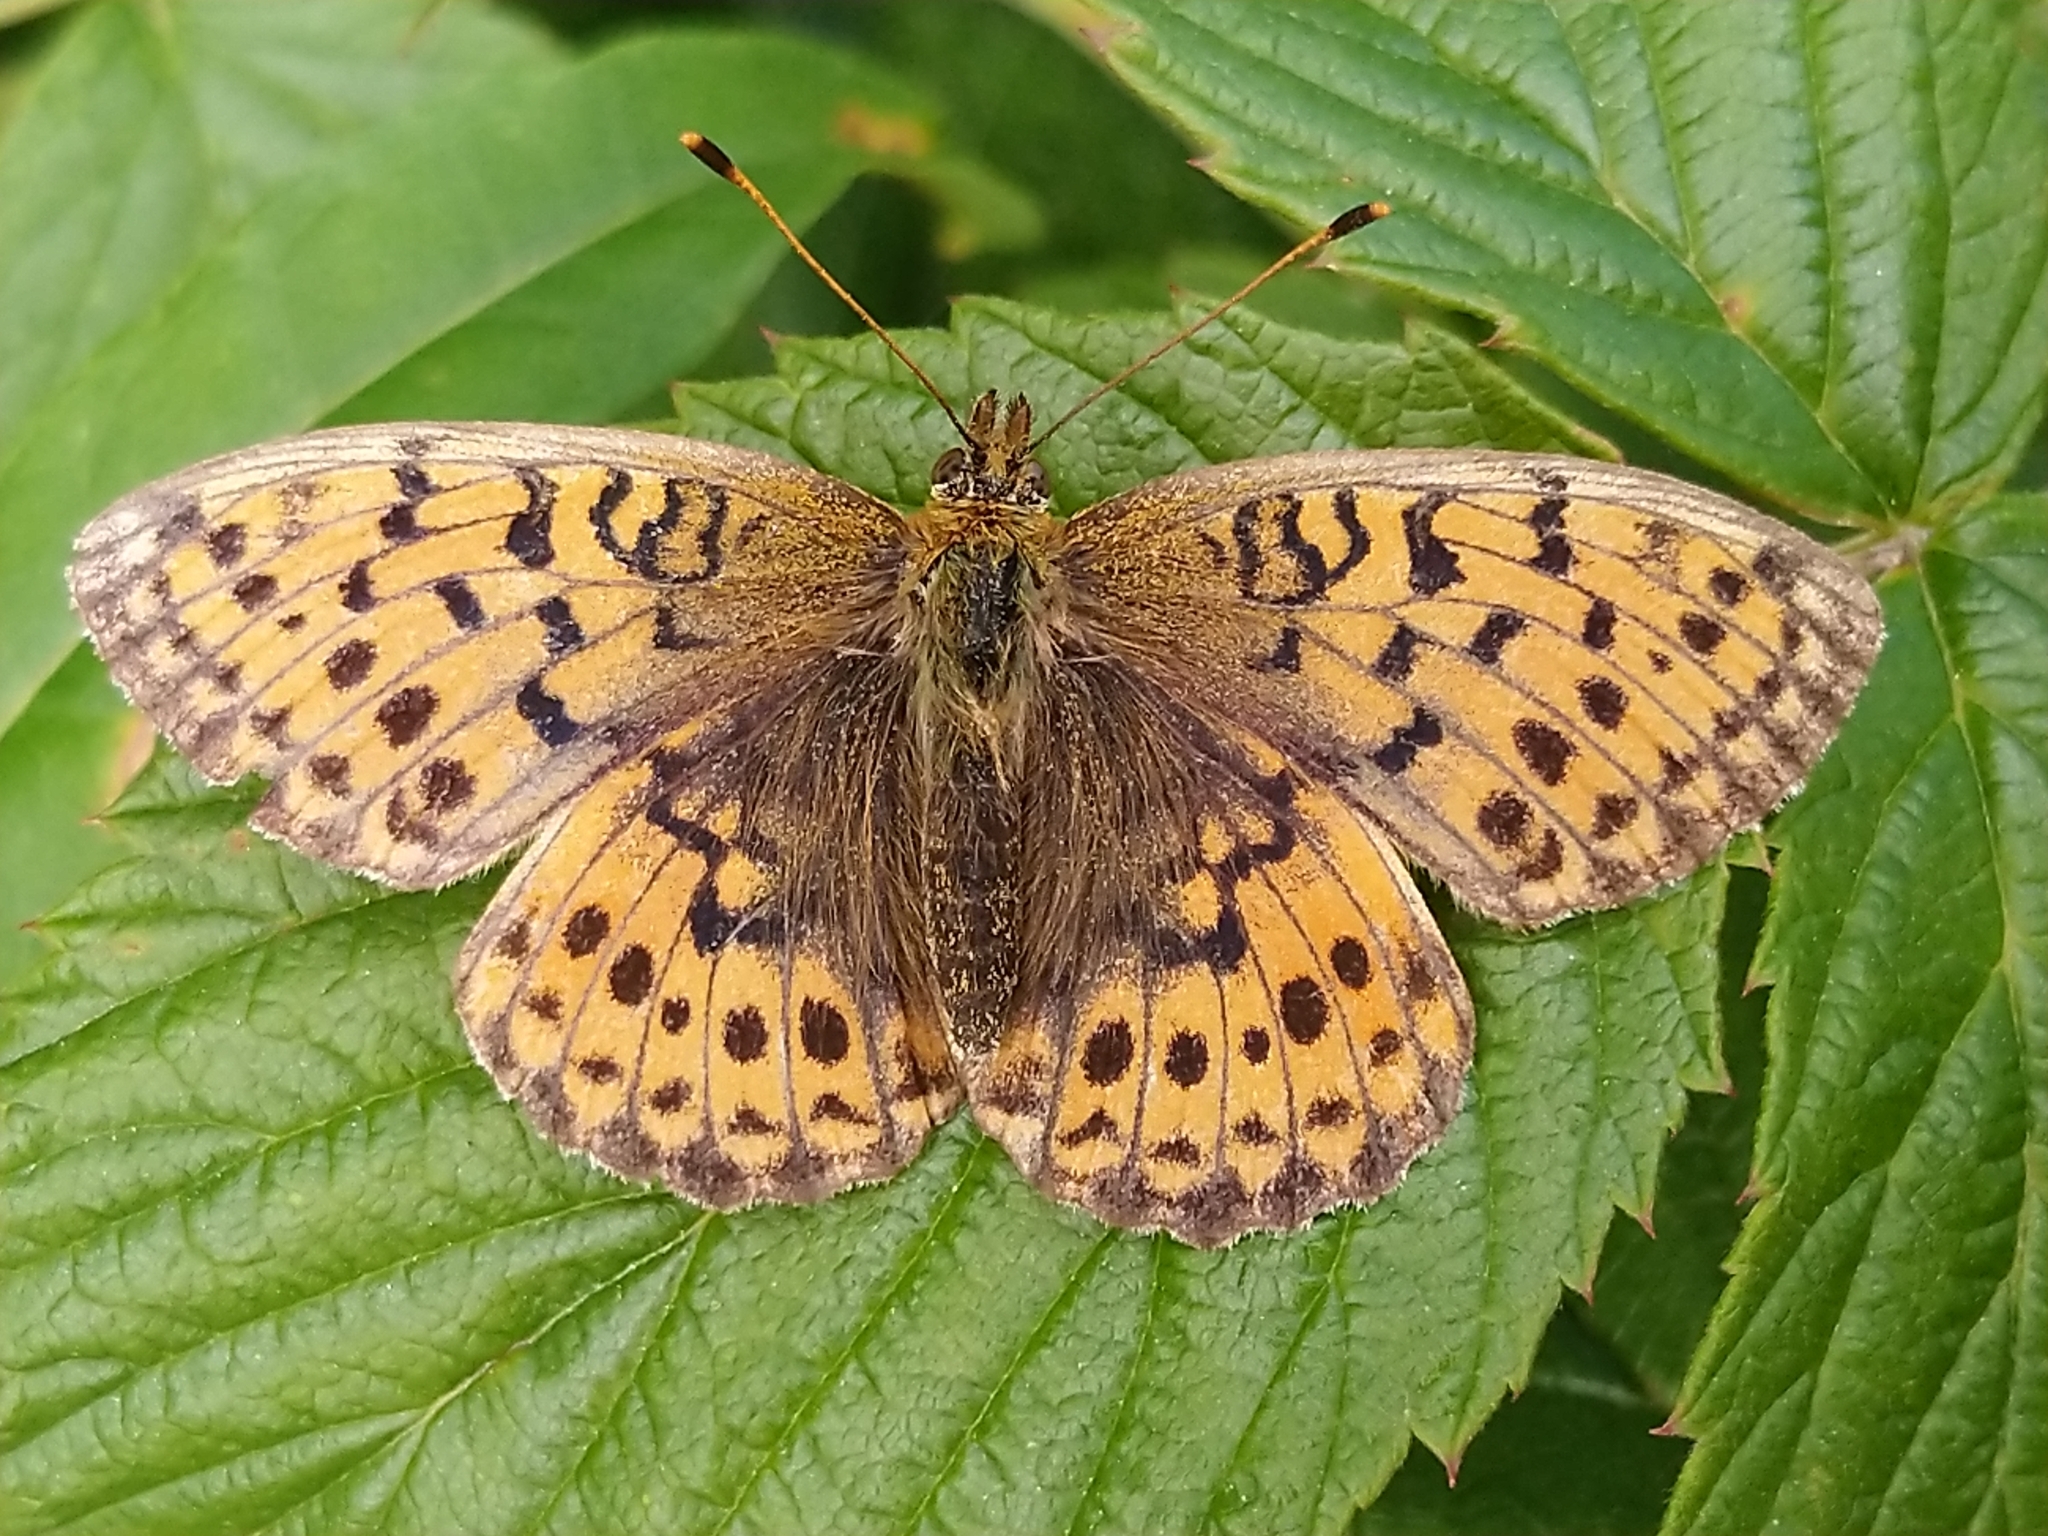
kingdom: Animalia
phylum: Arthropoda
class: Insecta
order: Lepidoptera
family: Nymphalidae
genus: Brenthis
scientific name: Brenthis ino
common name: Lesser marbled fritillary
